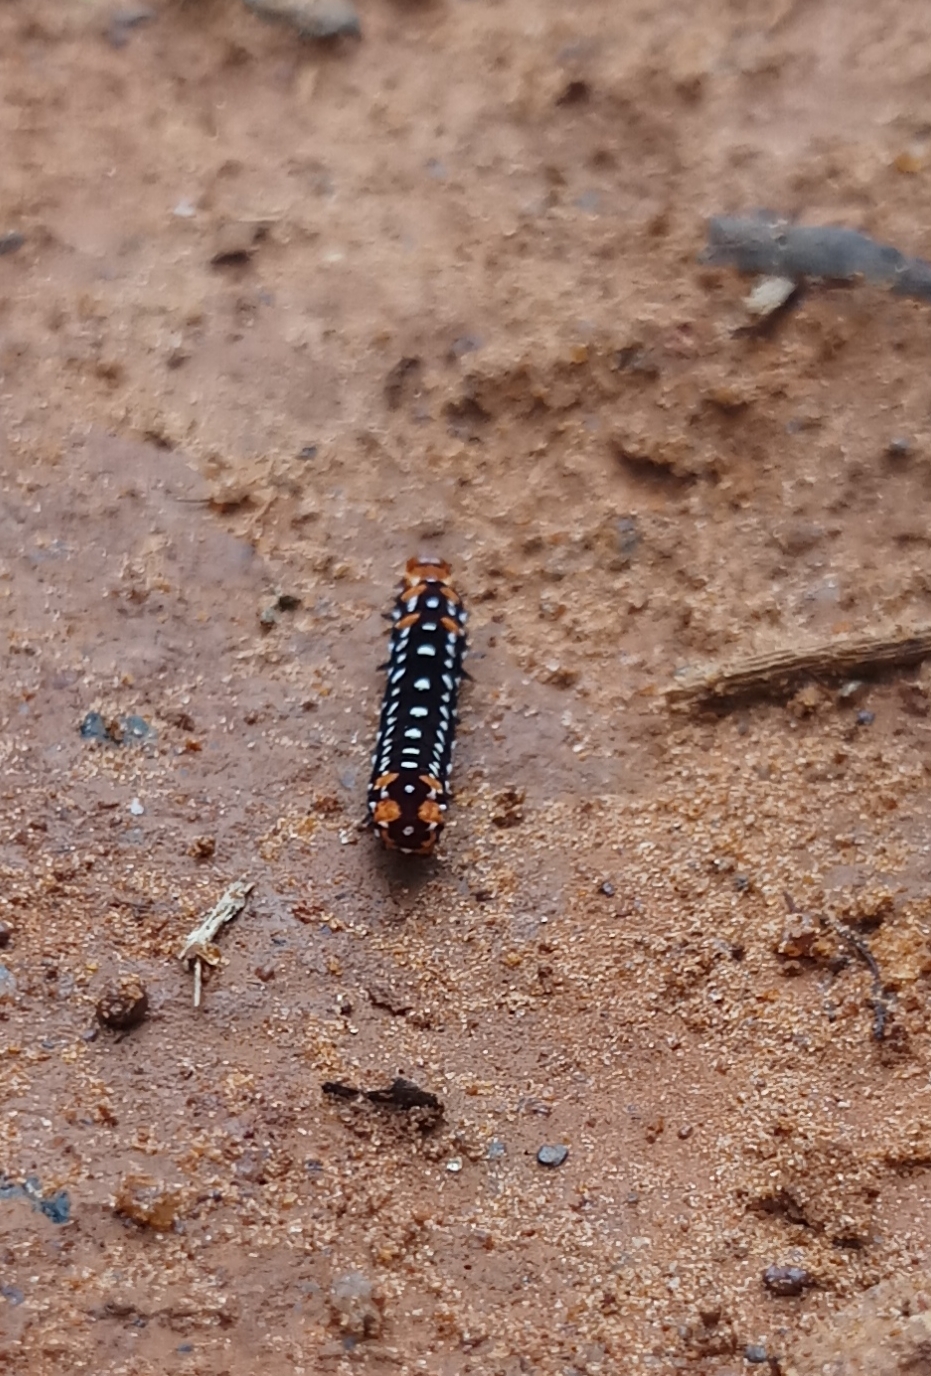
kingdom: Animalia
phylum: Arthropoda
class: Insecta
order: Lepidoptera
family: Noctuidae
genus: Polytela
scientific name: Polytela gloriosae
